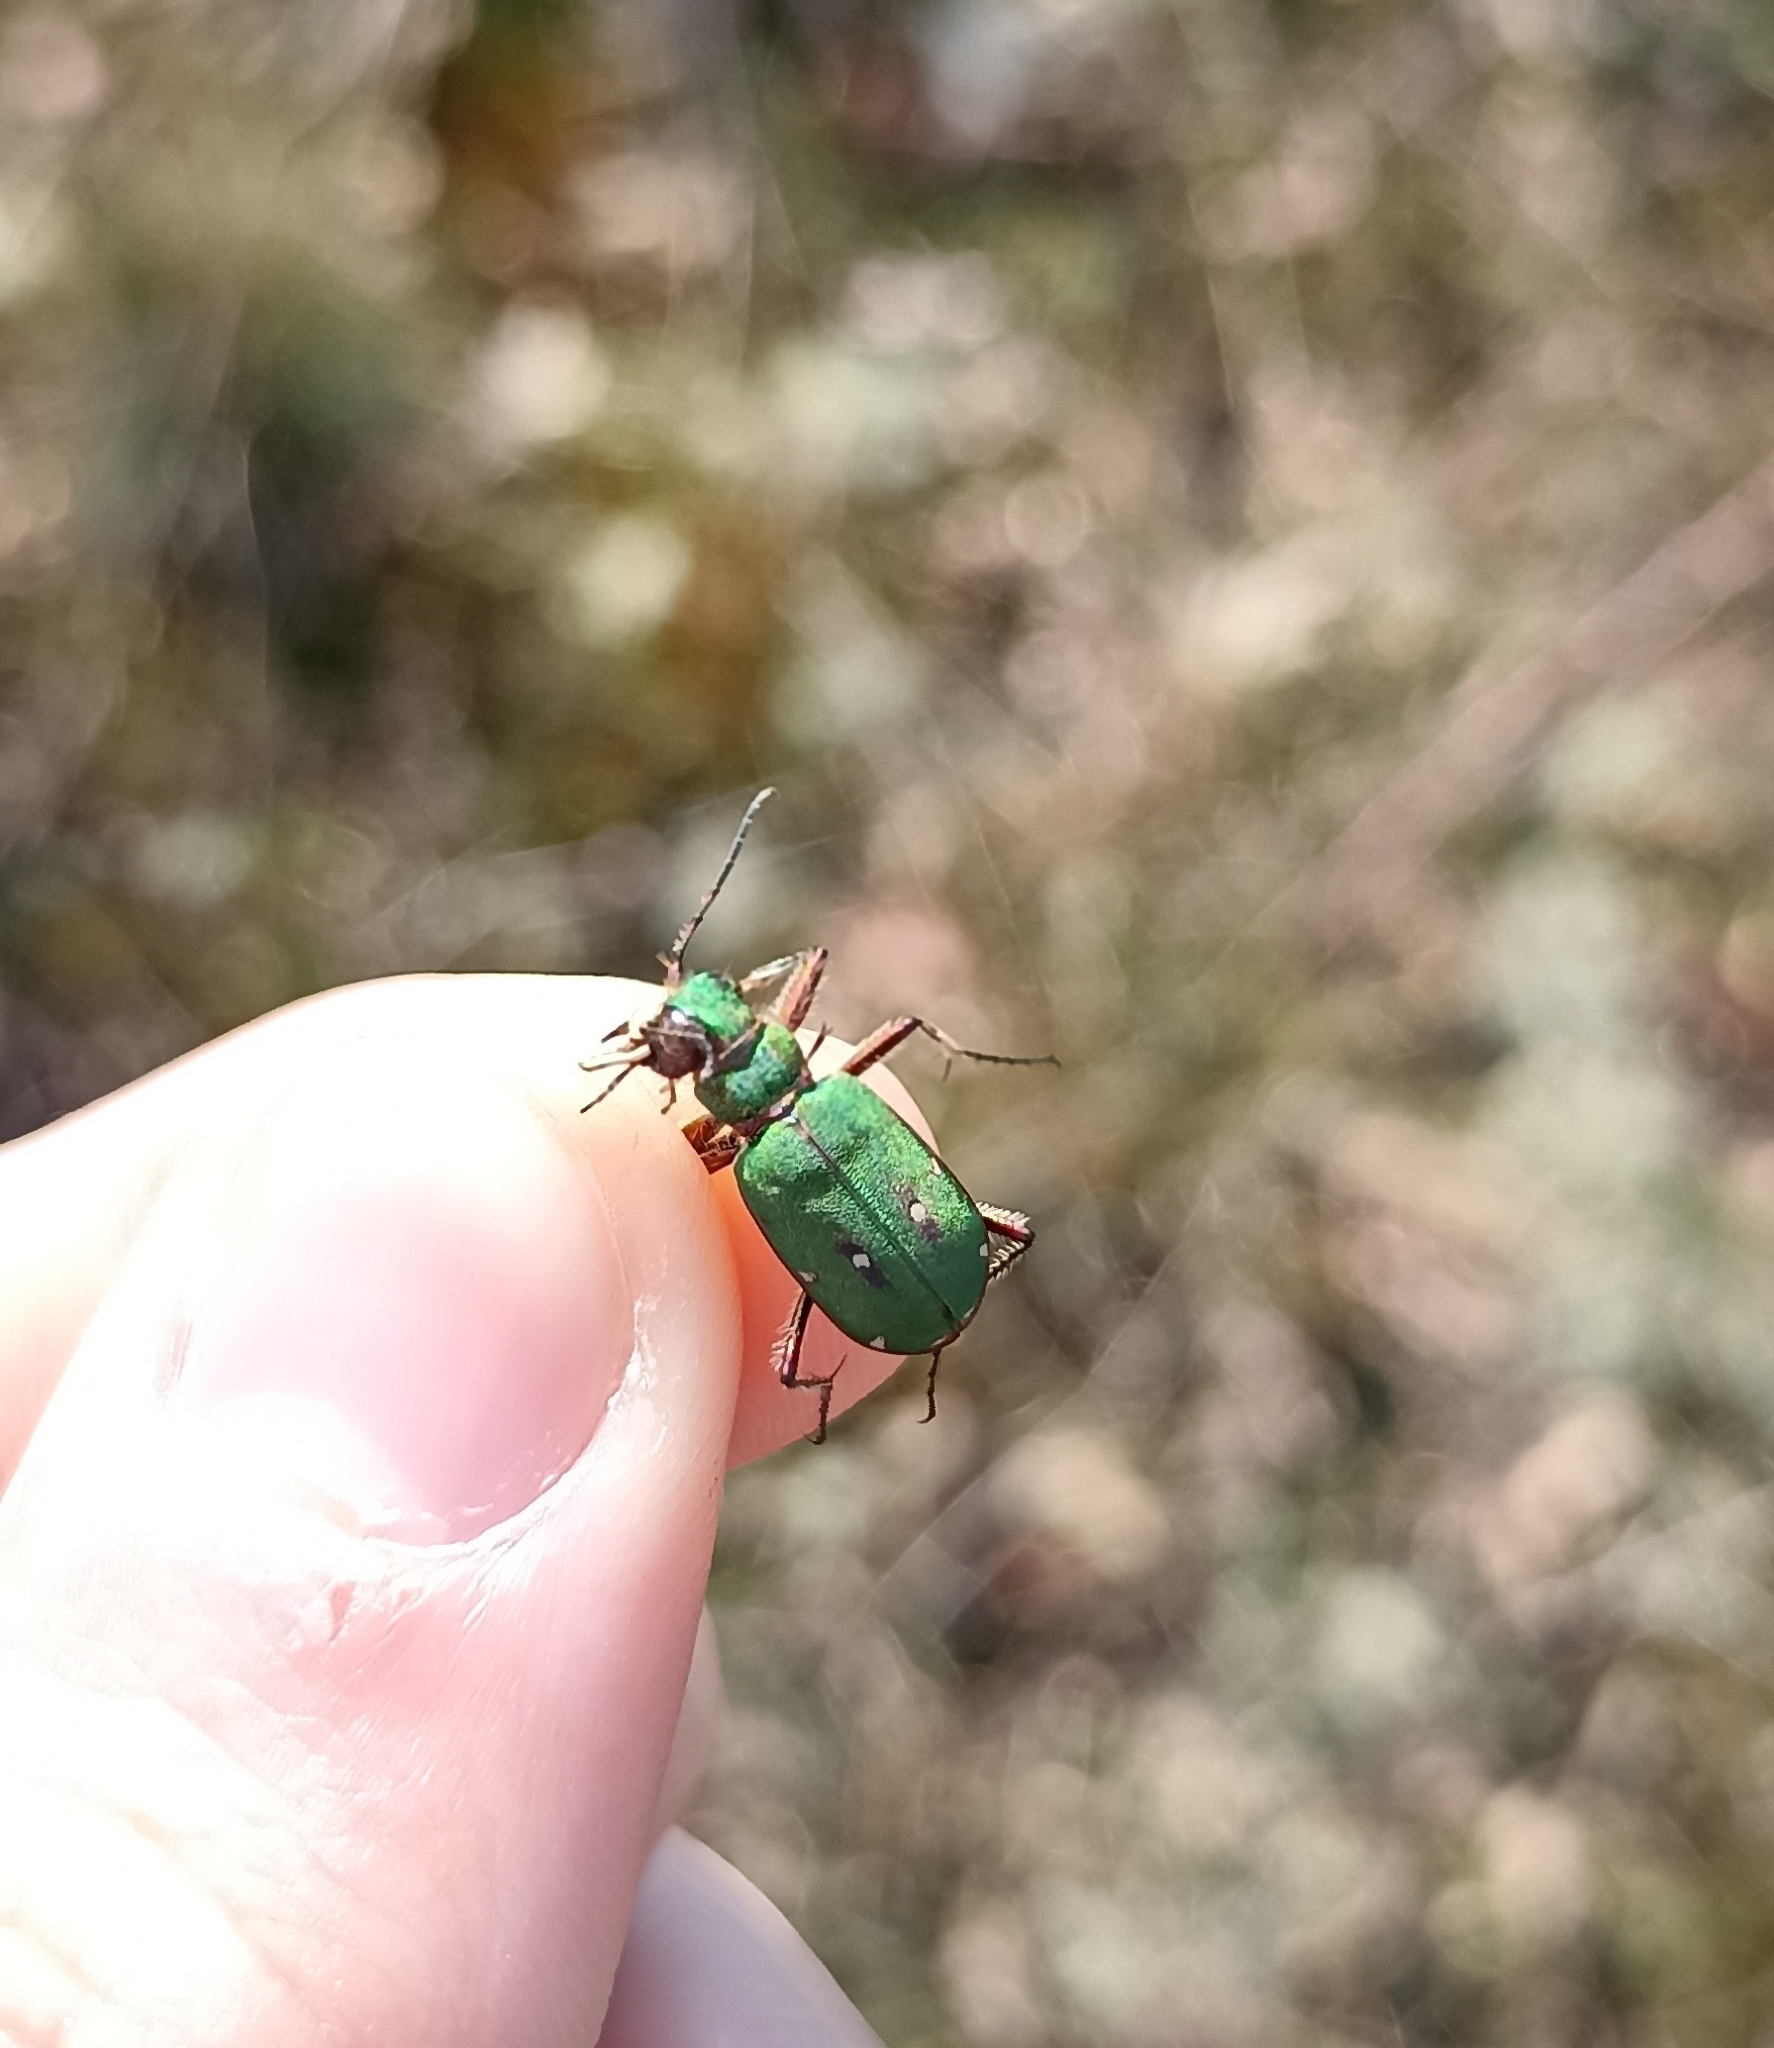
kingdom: Animalia
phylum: Arthropoda
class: Insecta
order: Coleoptera
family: Carabidae
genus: Cicindela
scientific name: Cicindela campestris
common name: Common tiger beetle
